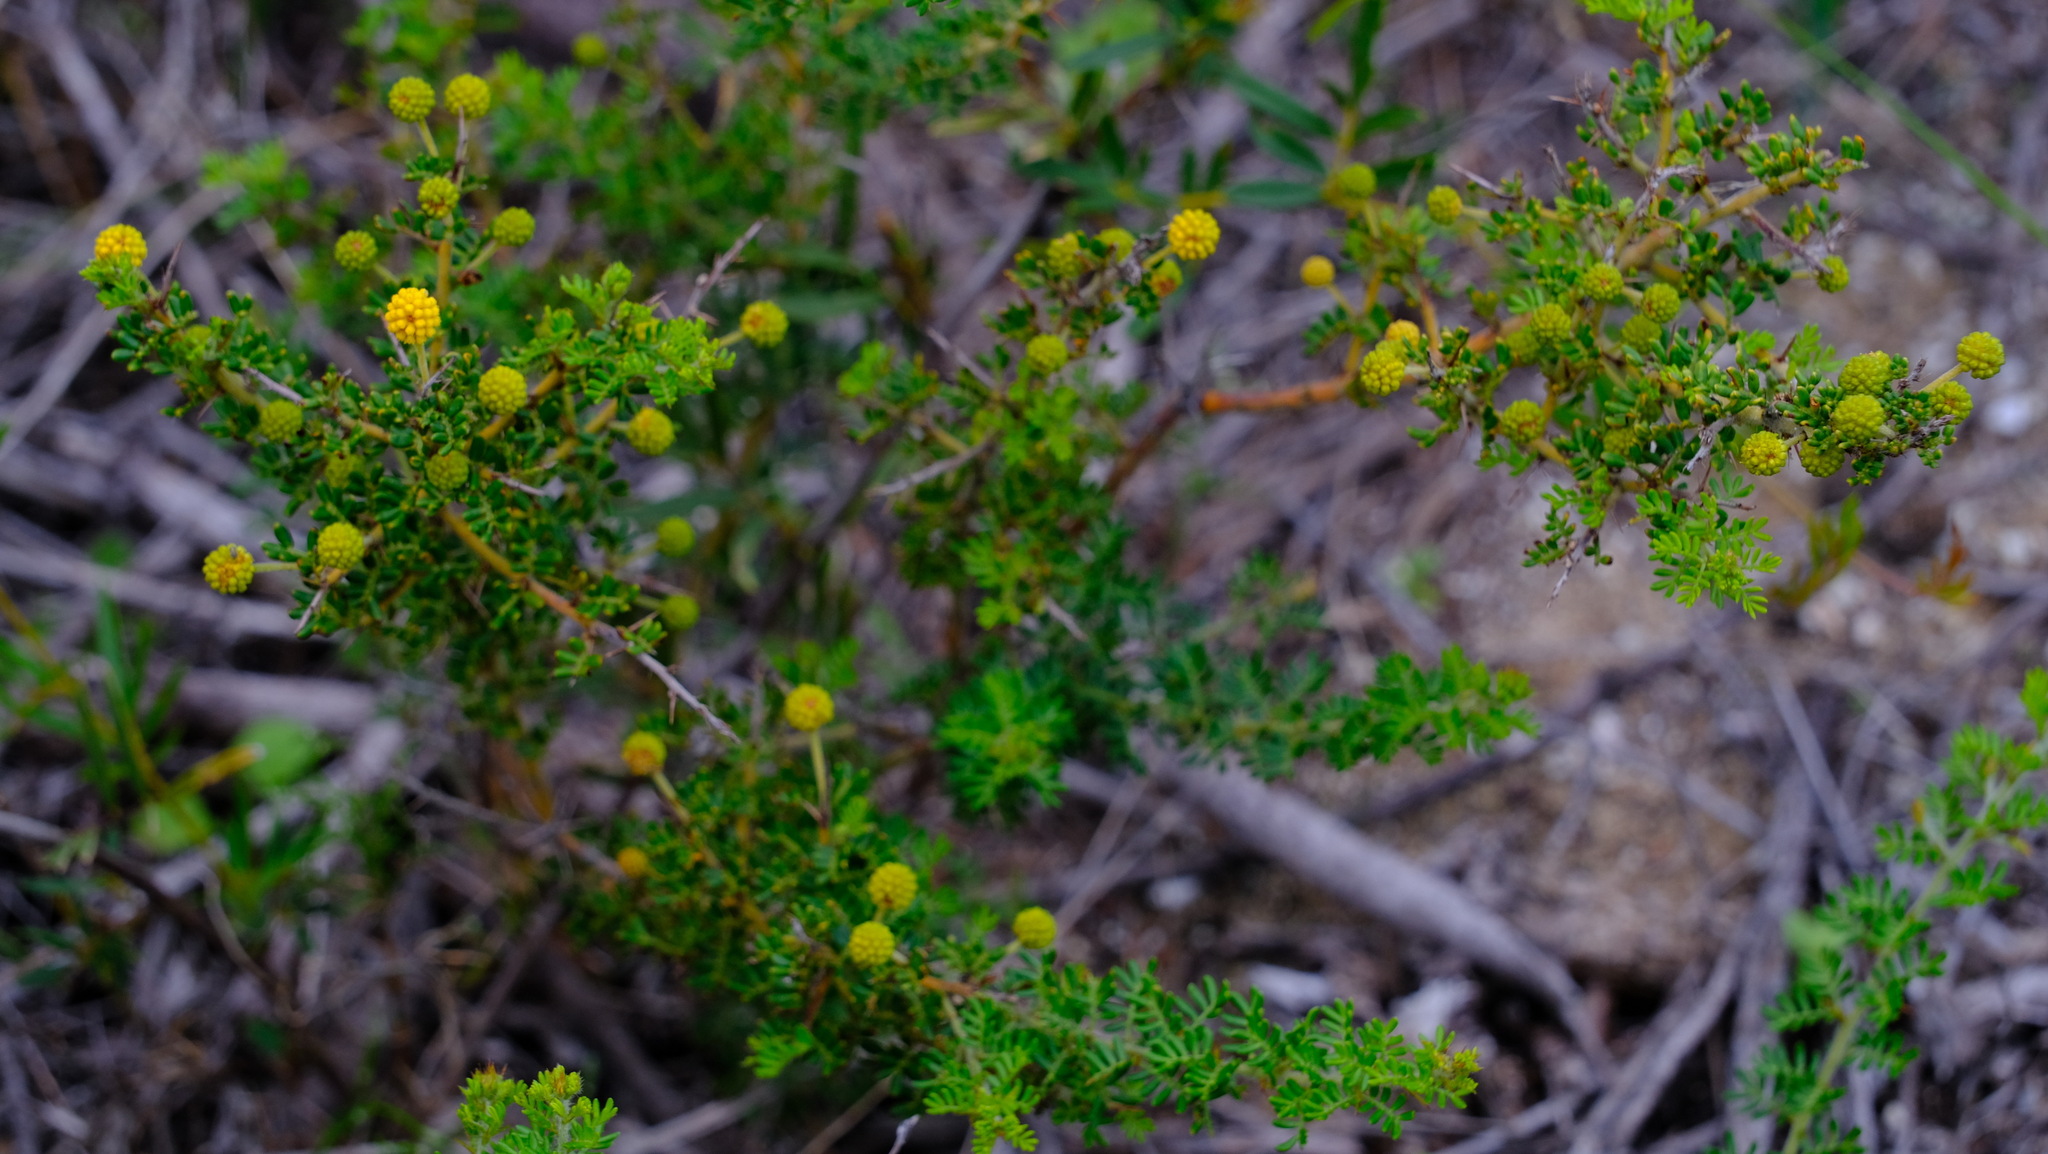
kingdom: Plantae
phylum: Tracheophyta
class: Magnoliopsida
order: Fabales
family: Fabaceae
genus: Acacia
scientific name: Acacia lasiocarpa
